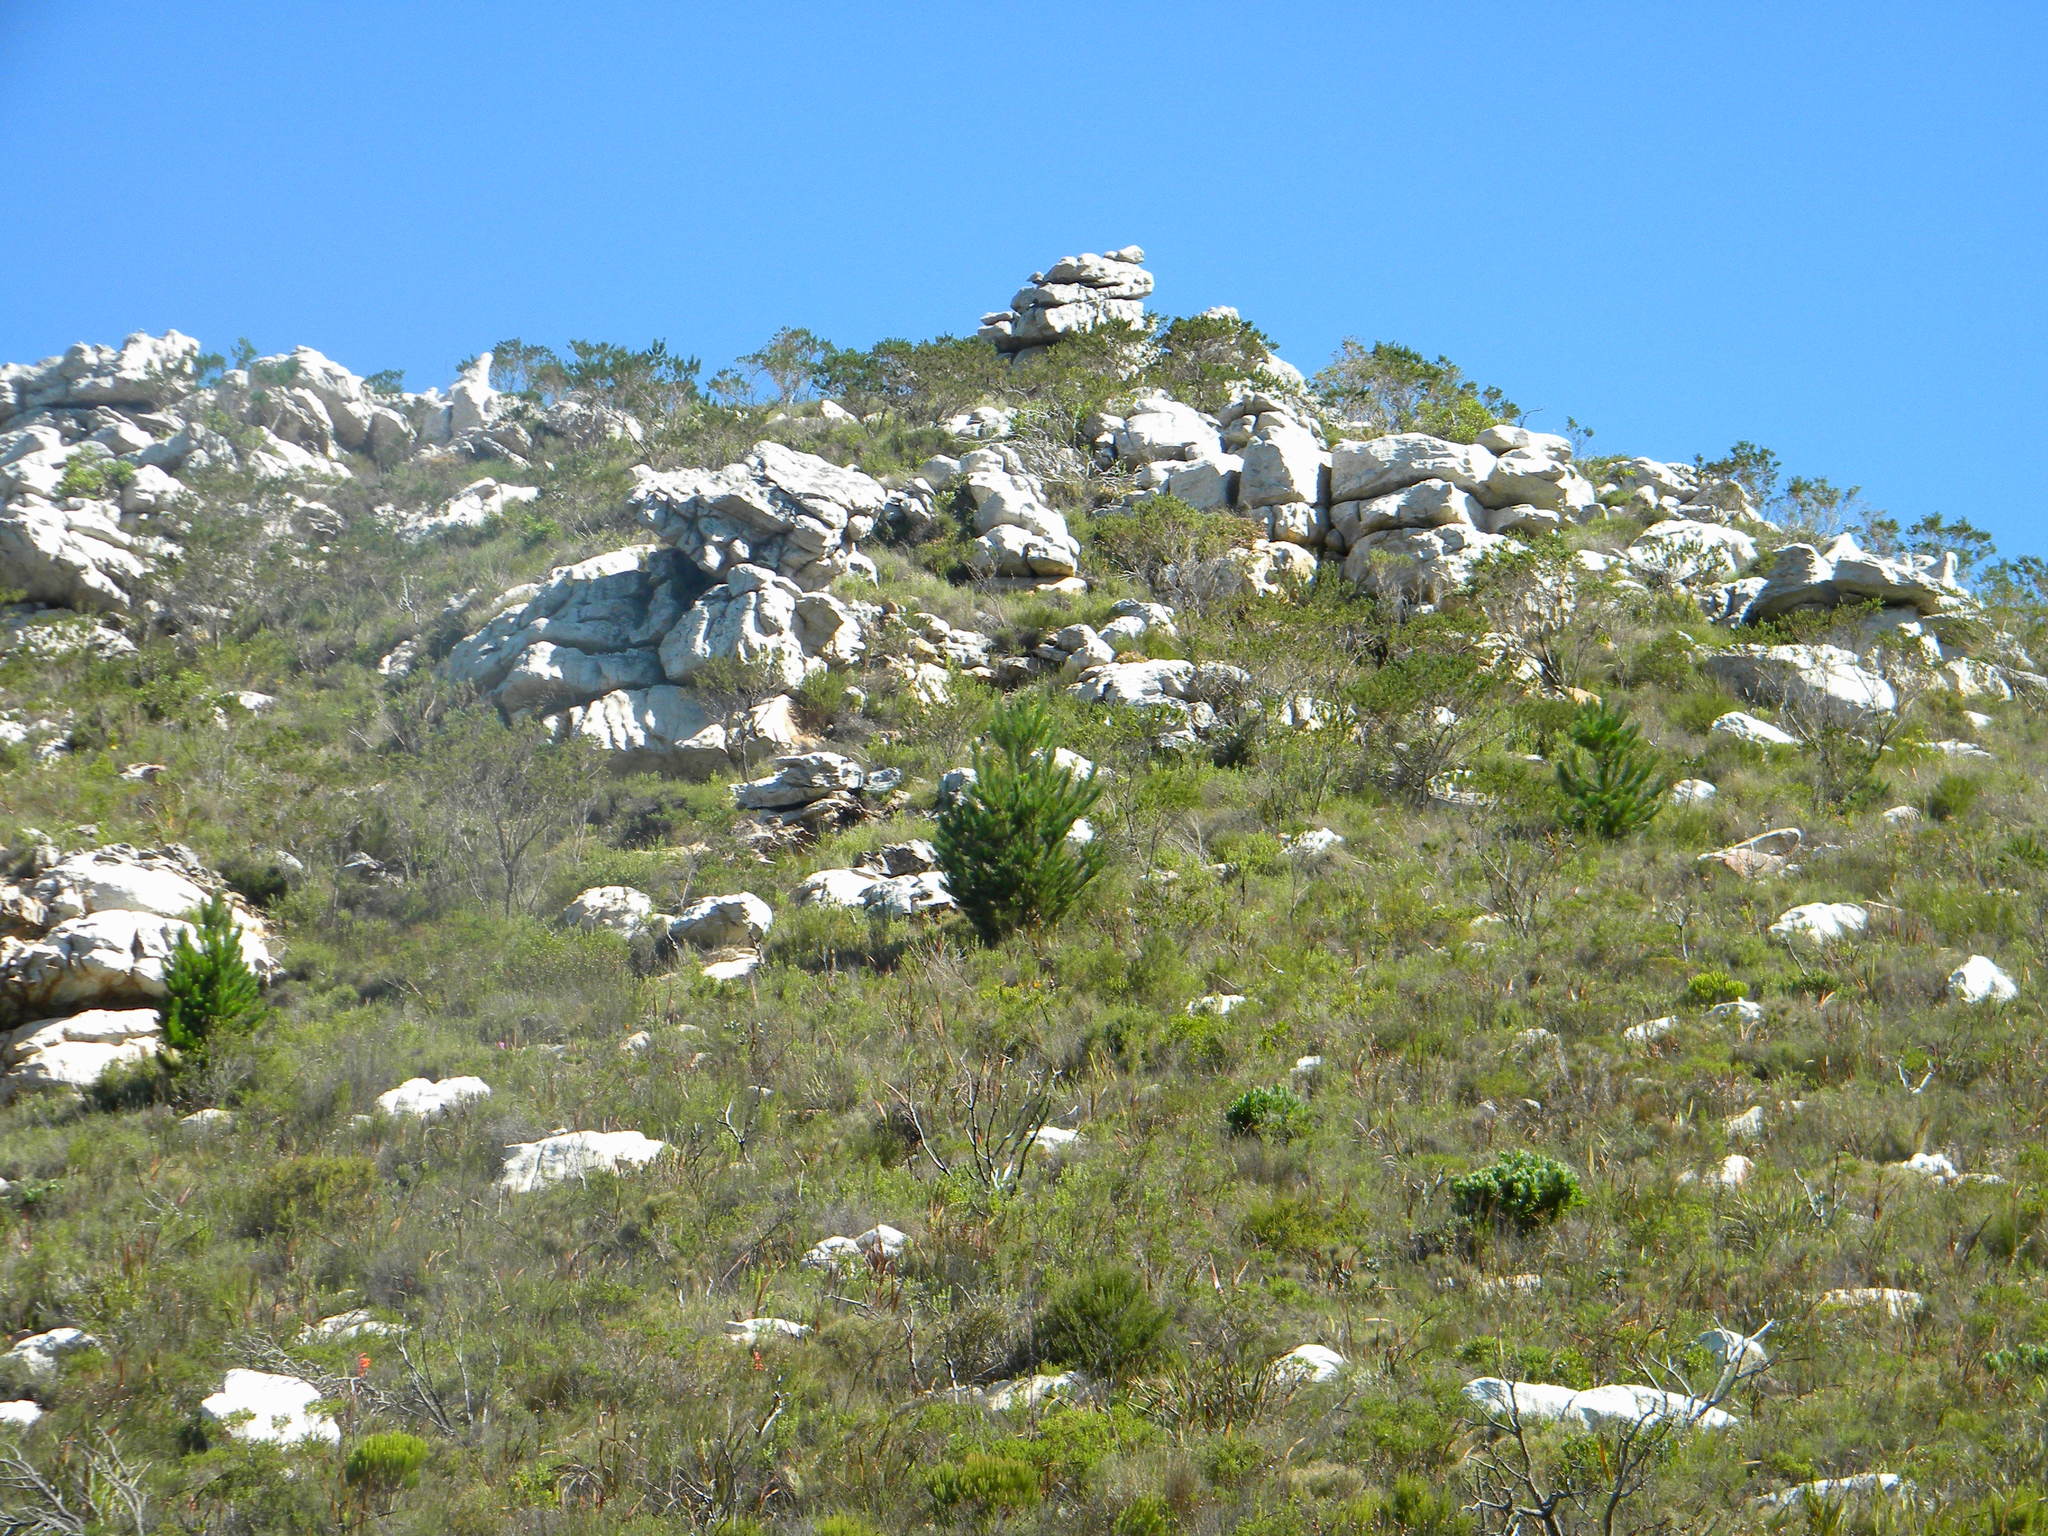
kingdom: Plantae
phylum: Tracheophyta
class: Pinopsida
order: Pinales
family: Pinaceae
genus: Pinus
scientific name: Pinus radiata
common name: Monterey pine
